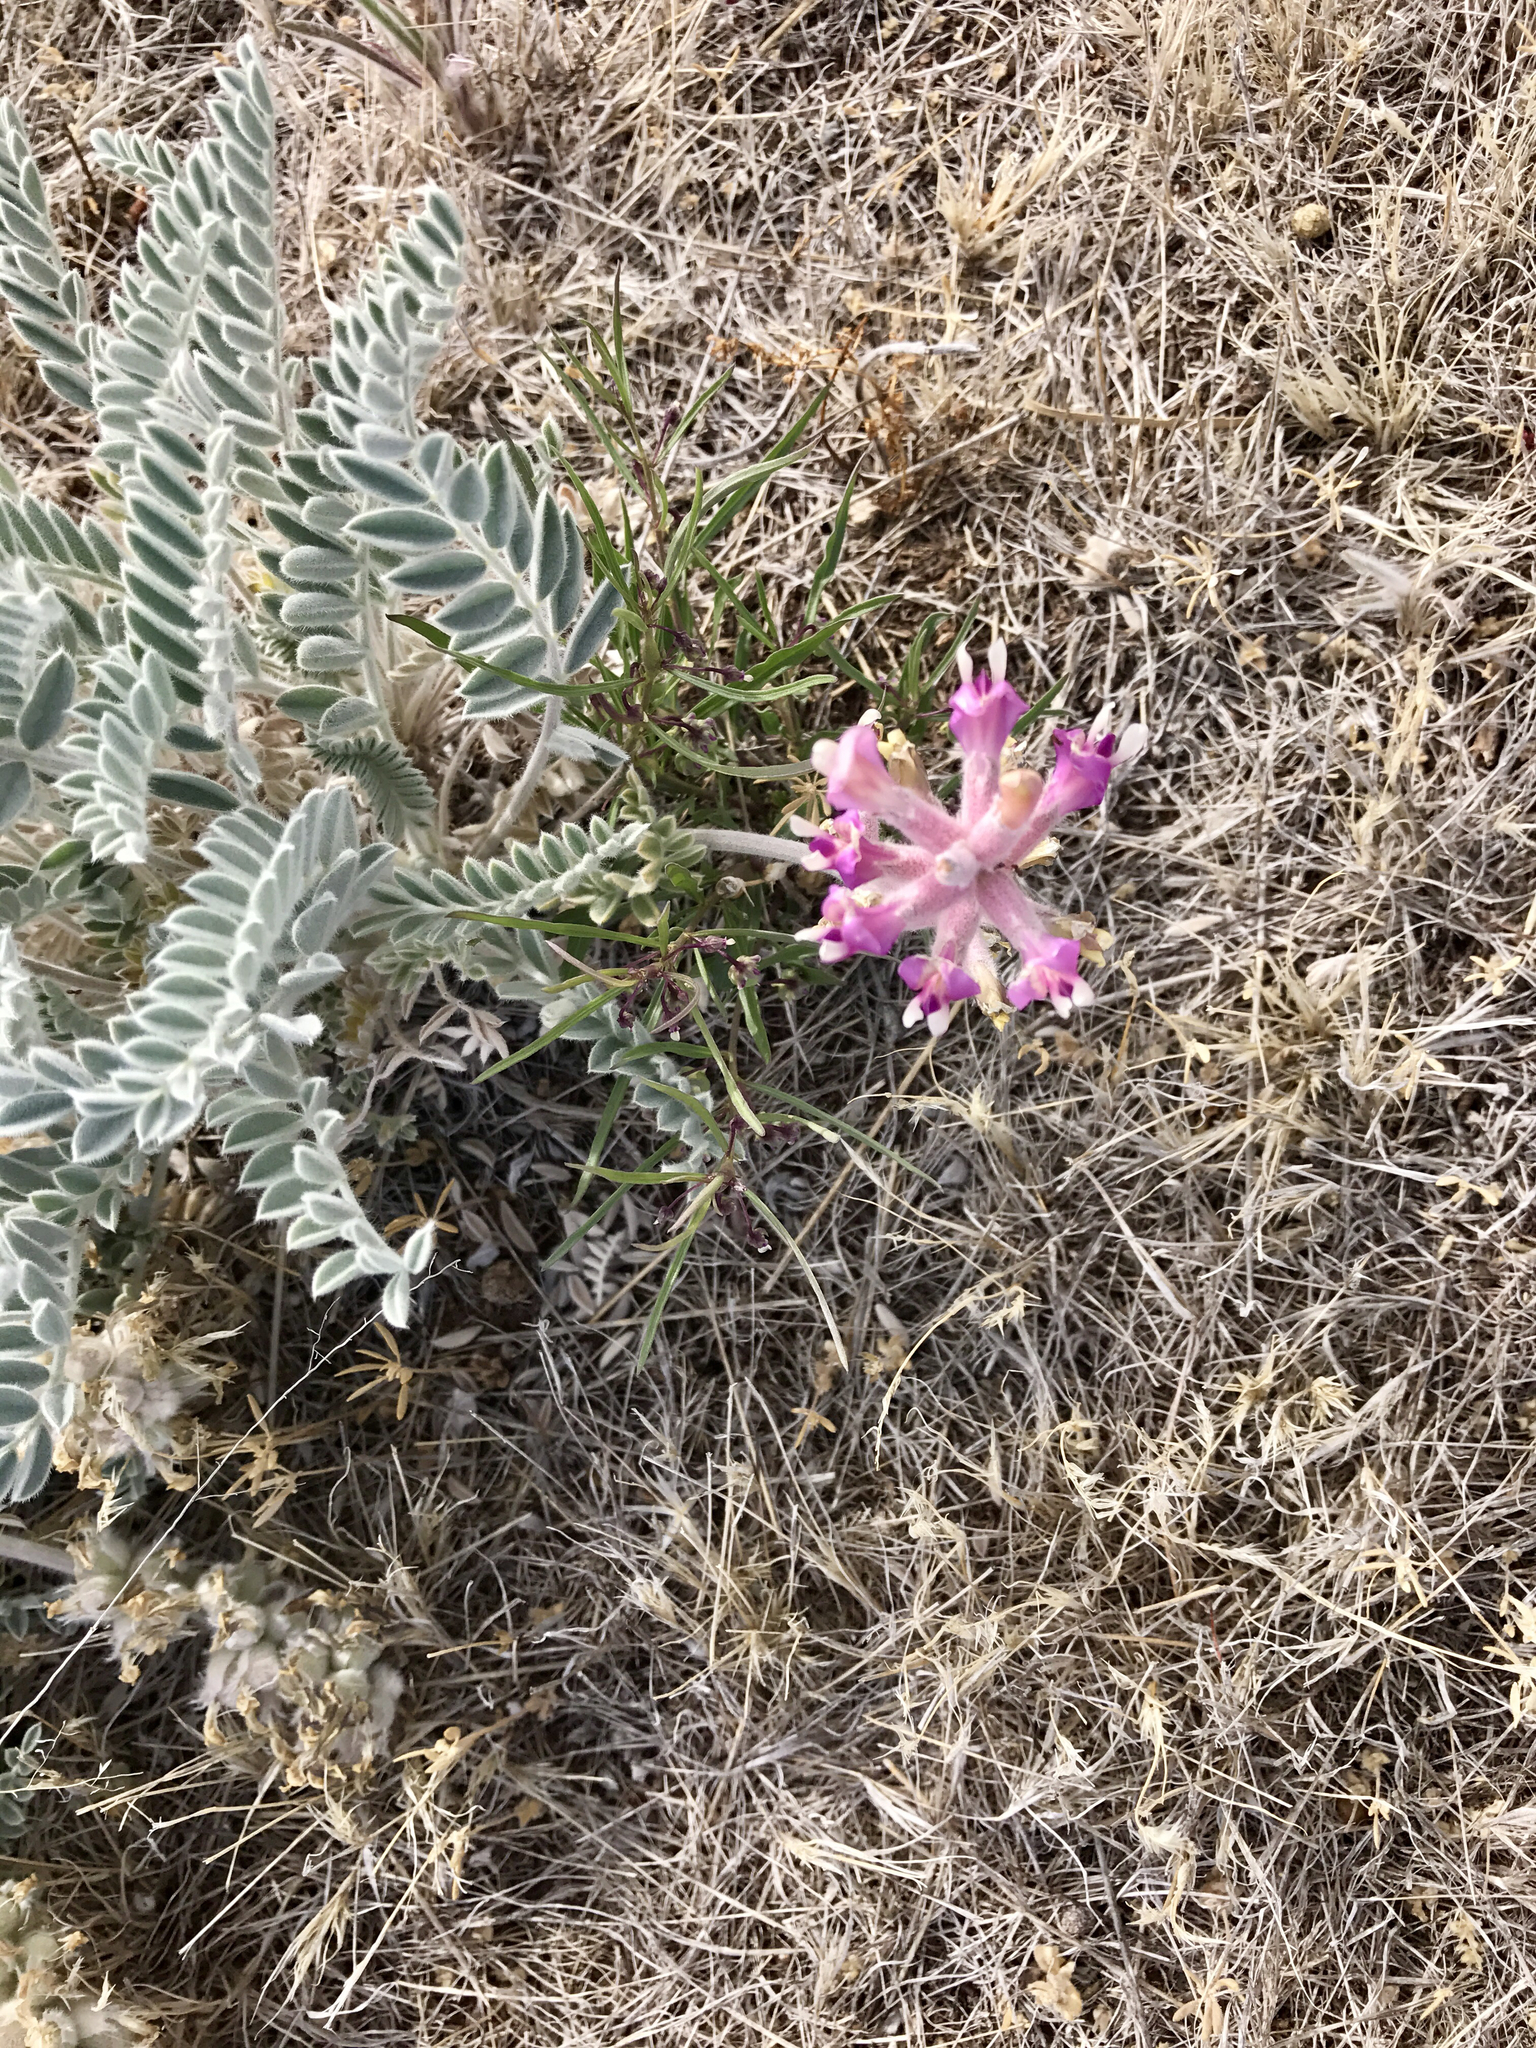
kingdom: Plantae
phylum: Tracheophyta
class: Magnoliopsida
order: Fabales
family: Fabaceae
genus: Astragalus
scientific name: Astragalus mollissimus
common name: Woolly locoweed
